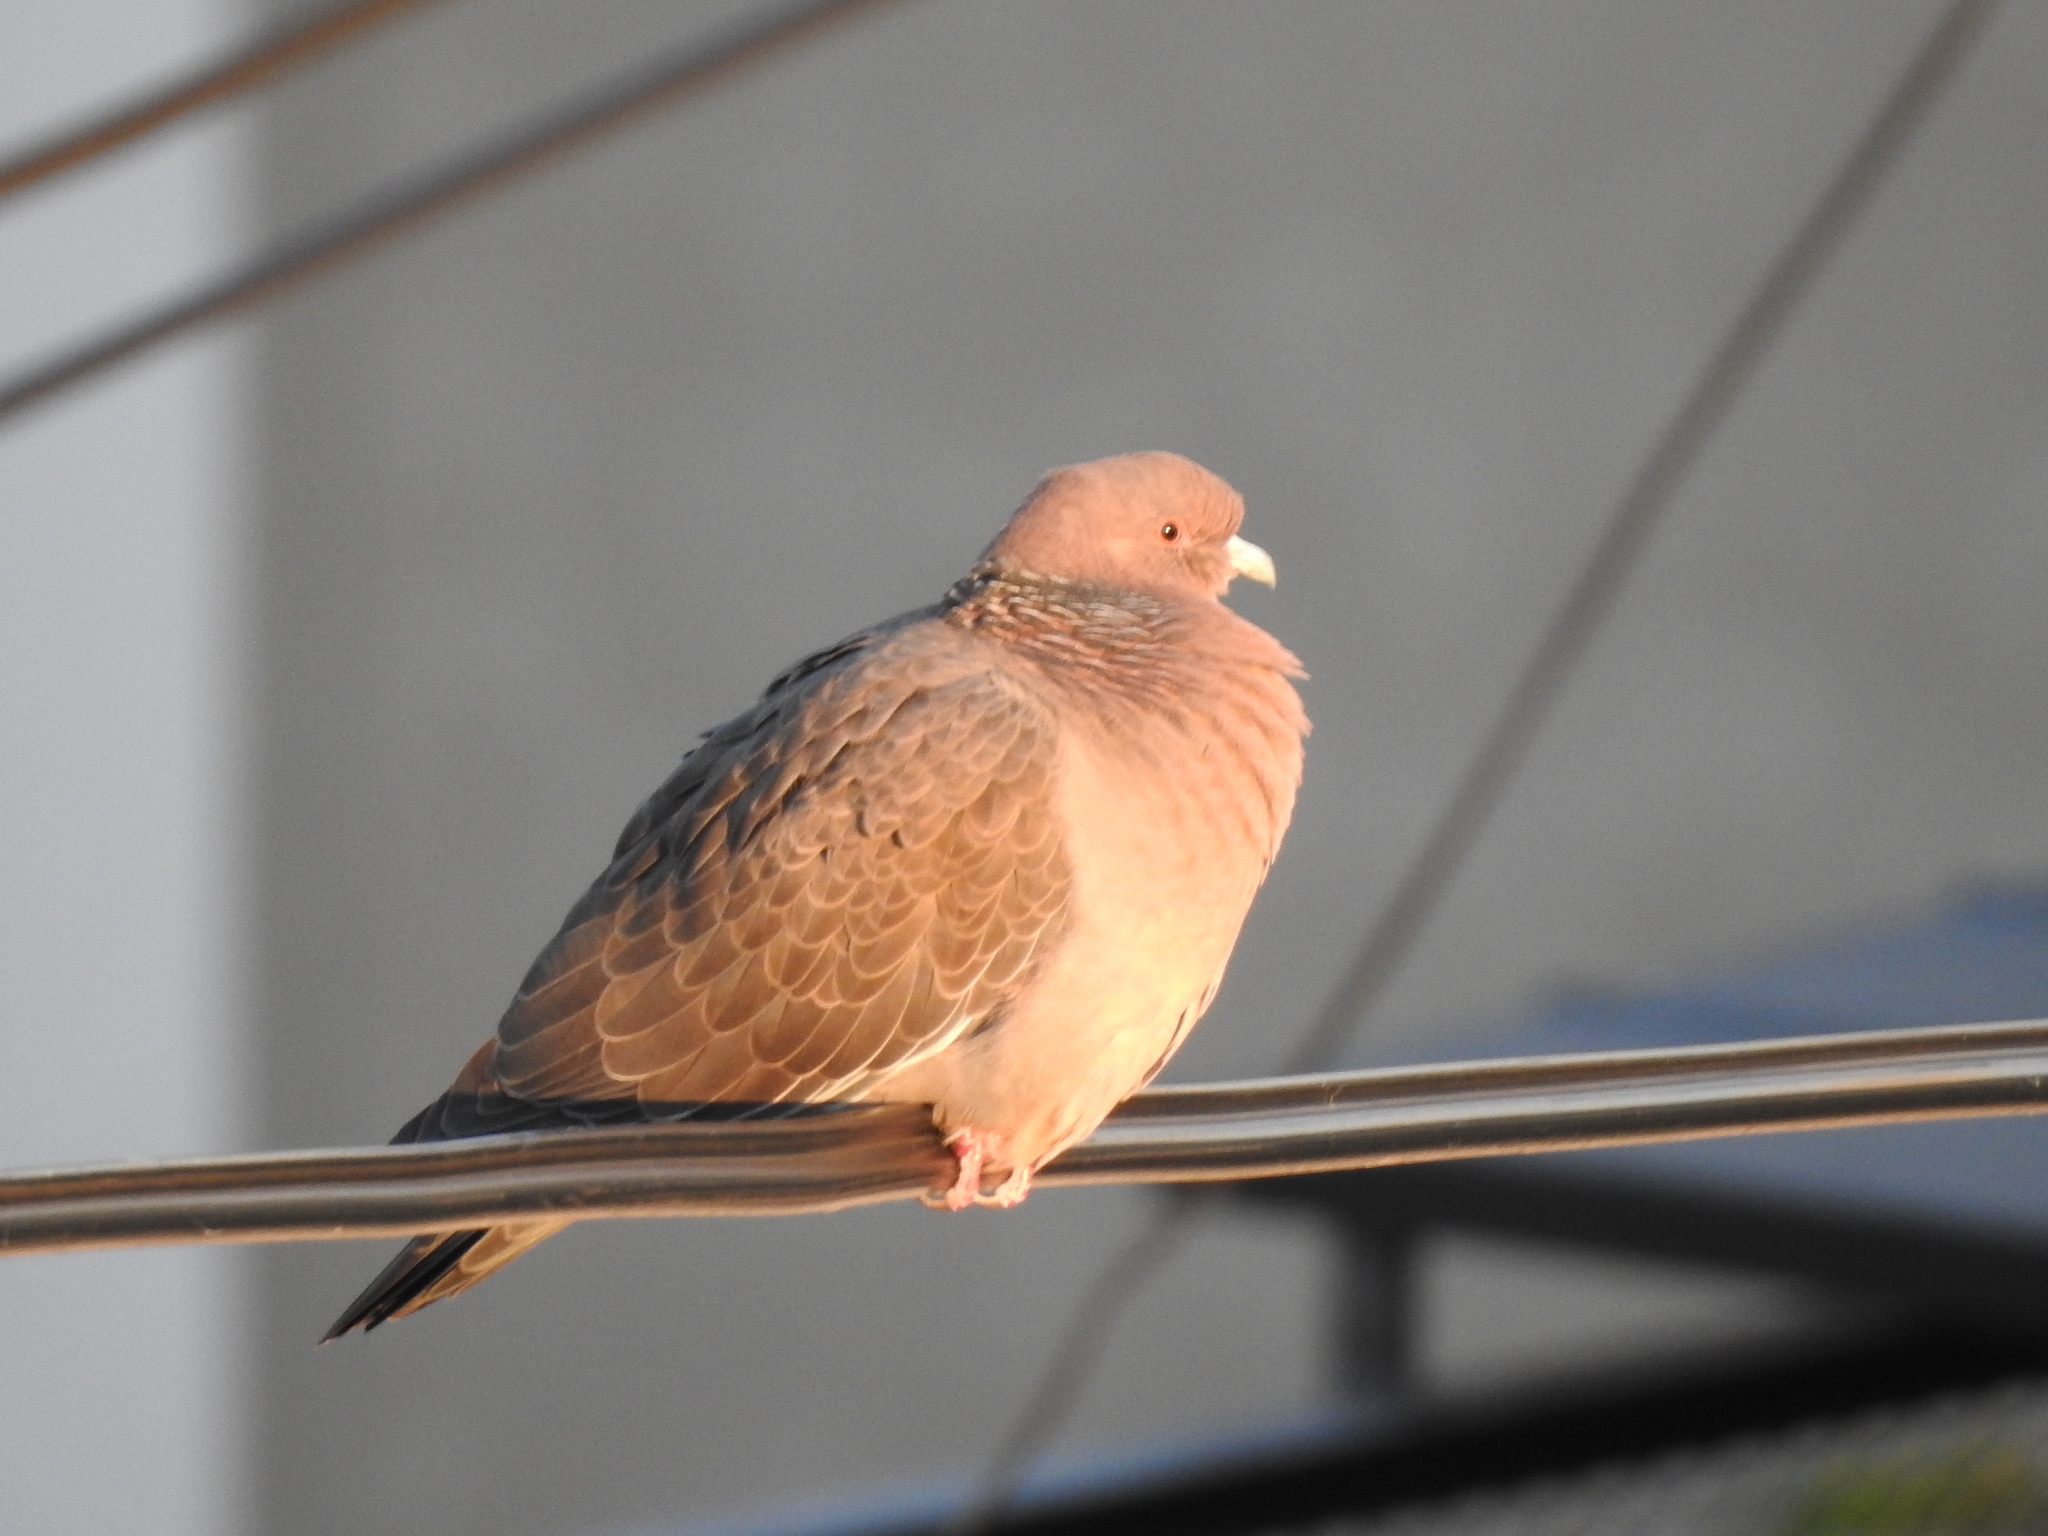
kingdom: Animalia
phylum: Chordata
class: Aves
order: Columbiformes
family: Columbidae
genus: Patagioenas
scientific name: Patagioenas picazuro
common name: Picazuro pigeon
